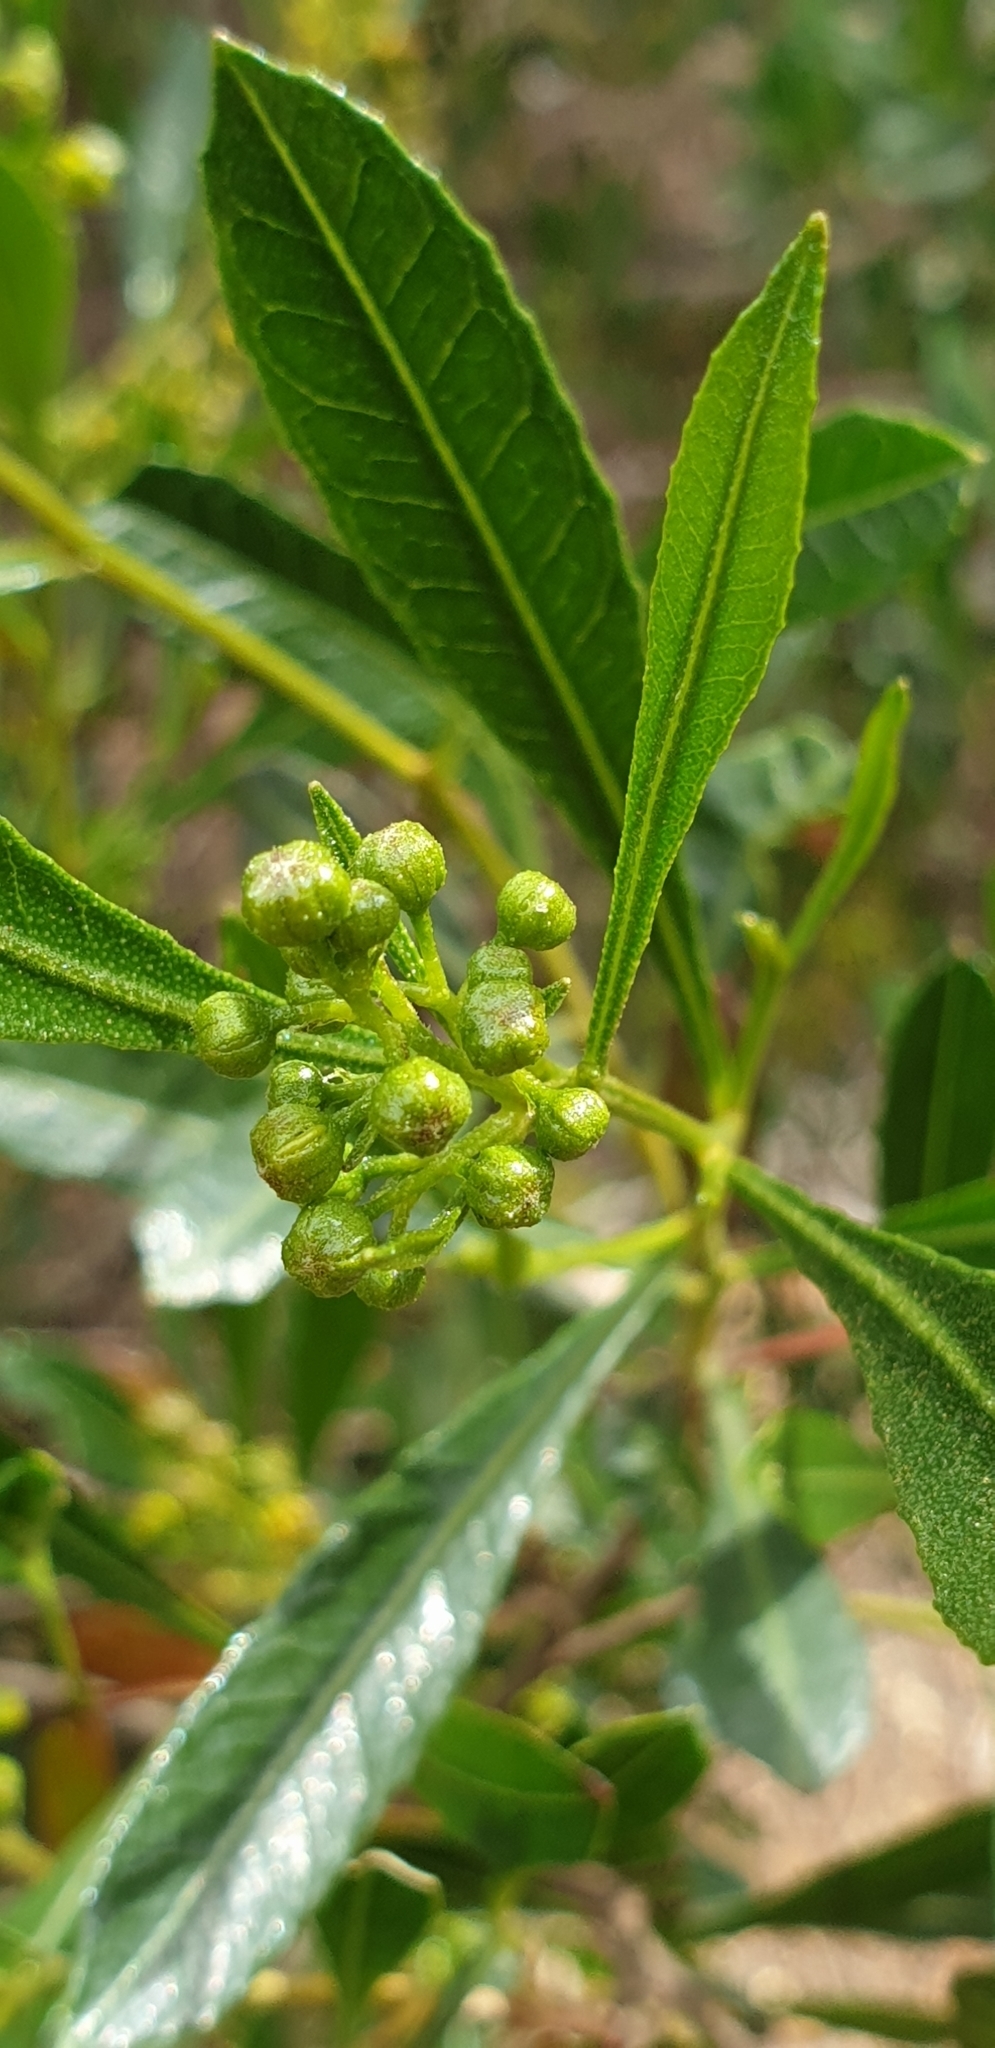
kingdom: Plantae
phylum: Tracheophyta
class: Magnoliopsida
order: Sapindales
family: Sapindaceae
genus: Dodonaea
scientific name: Dodonaea viscosa
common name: Hopbush
